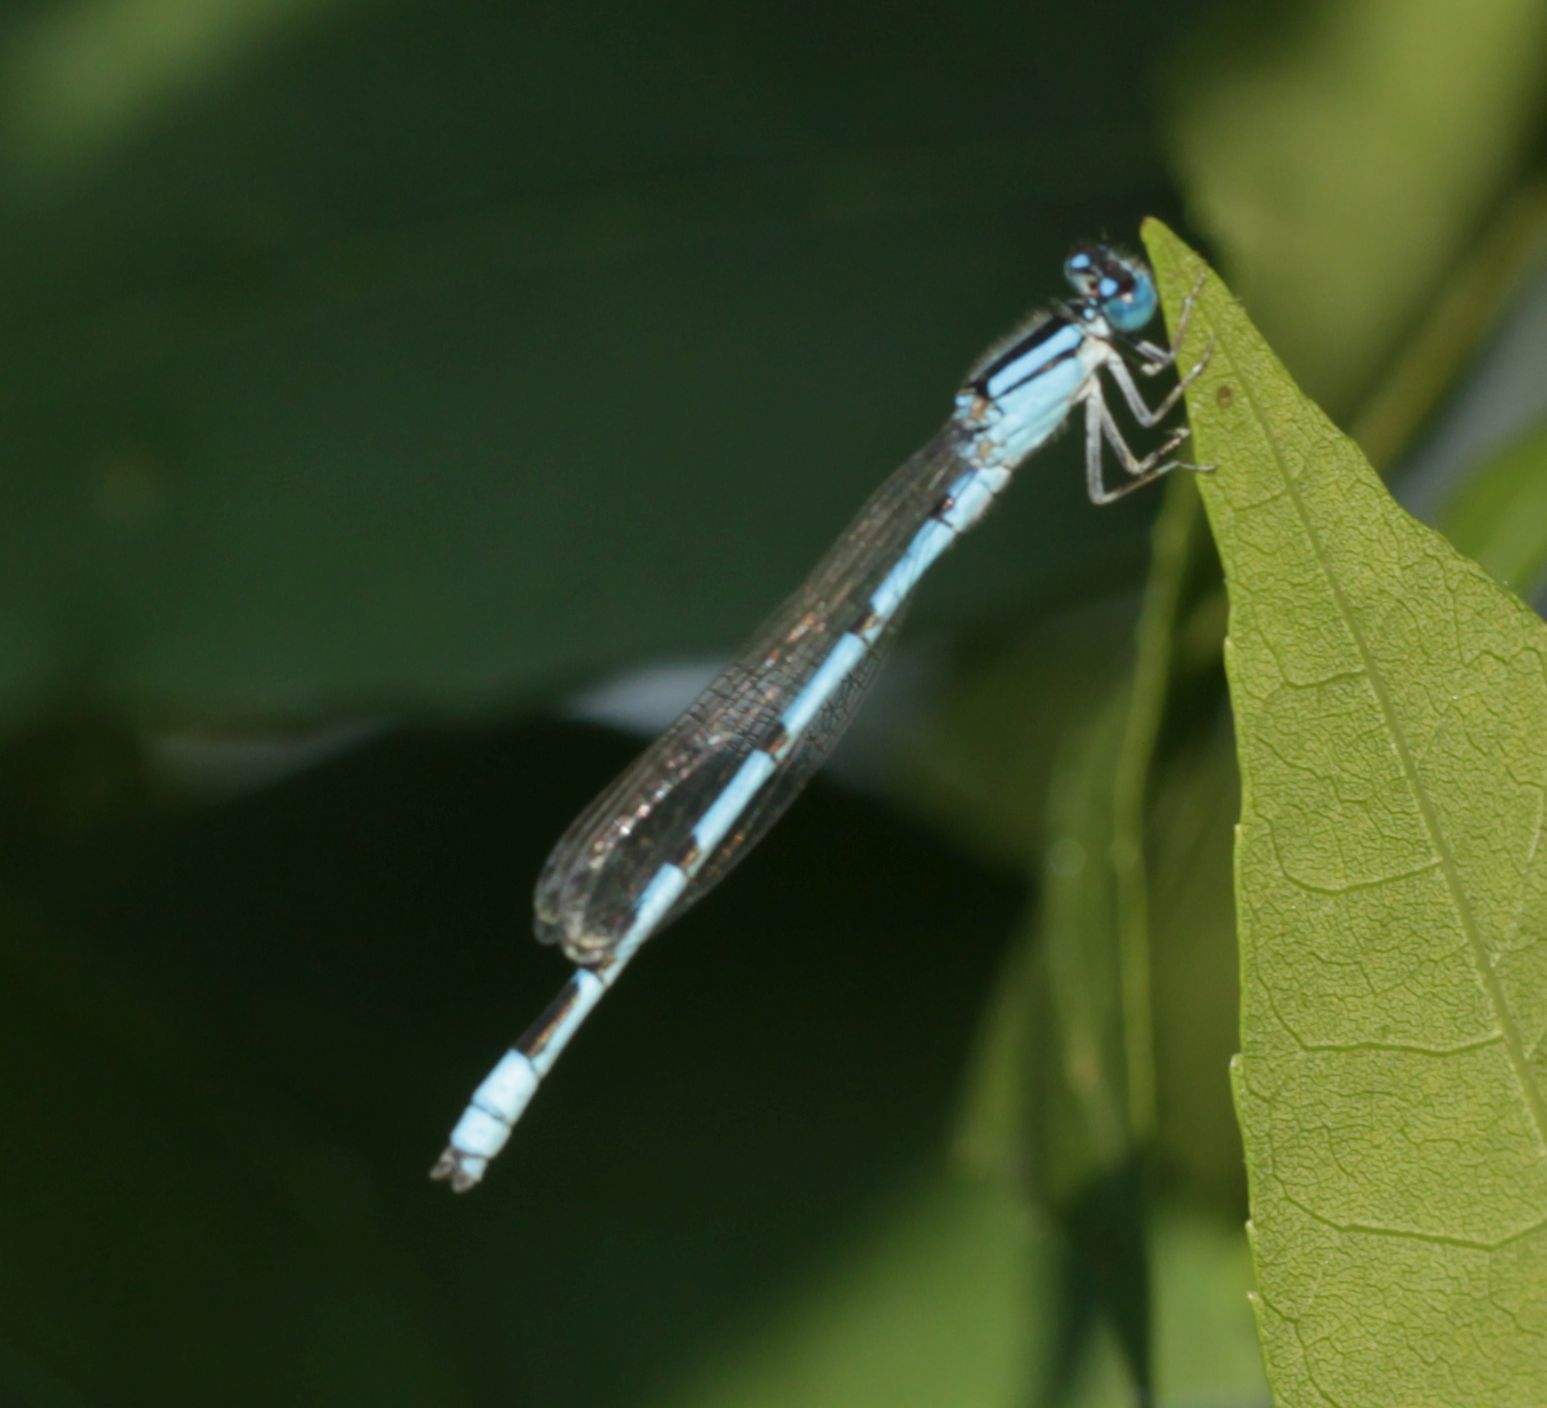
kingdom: Animalia
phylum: Arthropoda
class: Insecta
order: Odonata
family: Coenagrionidae
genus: Enallagma
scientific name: Enallagma civile
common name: Damselfly
